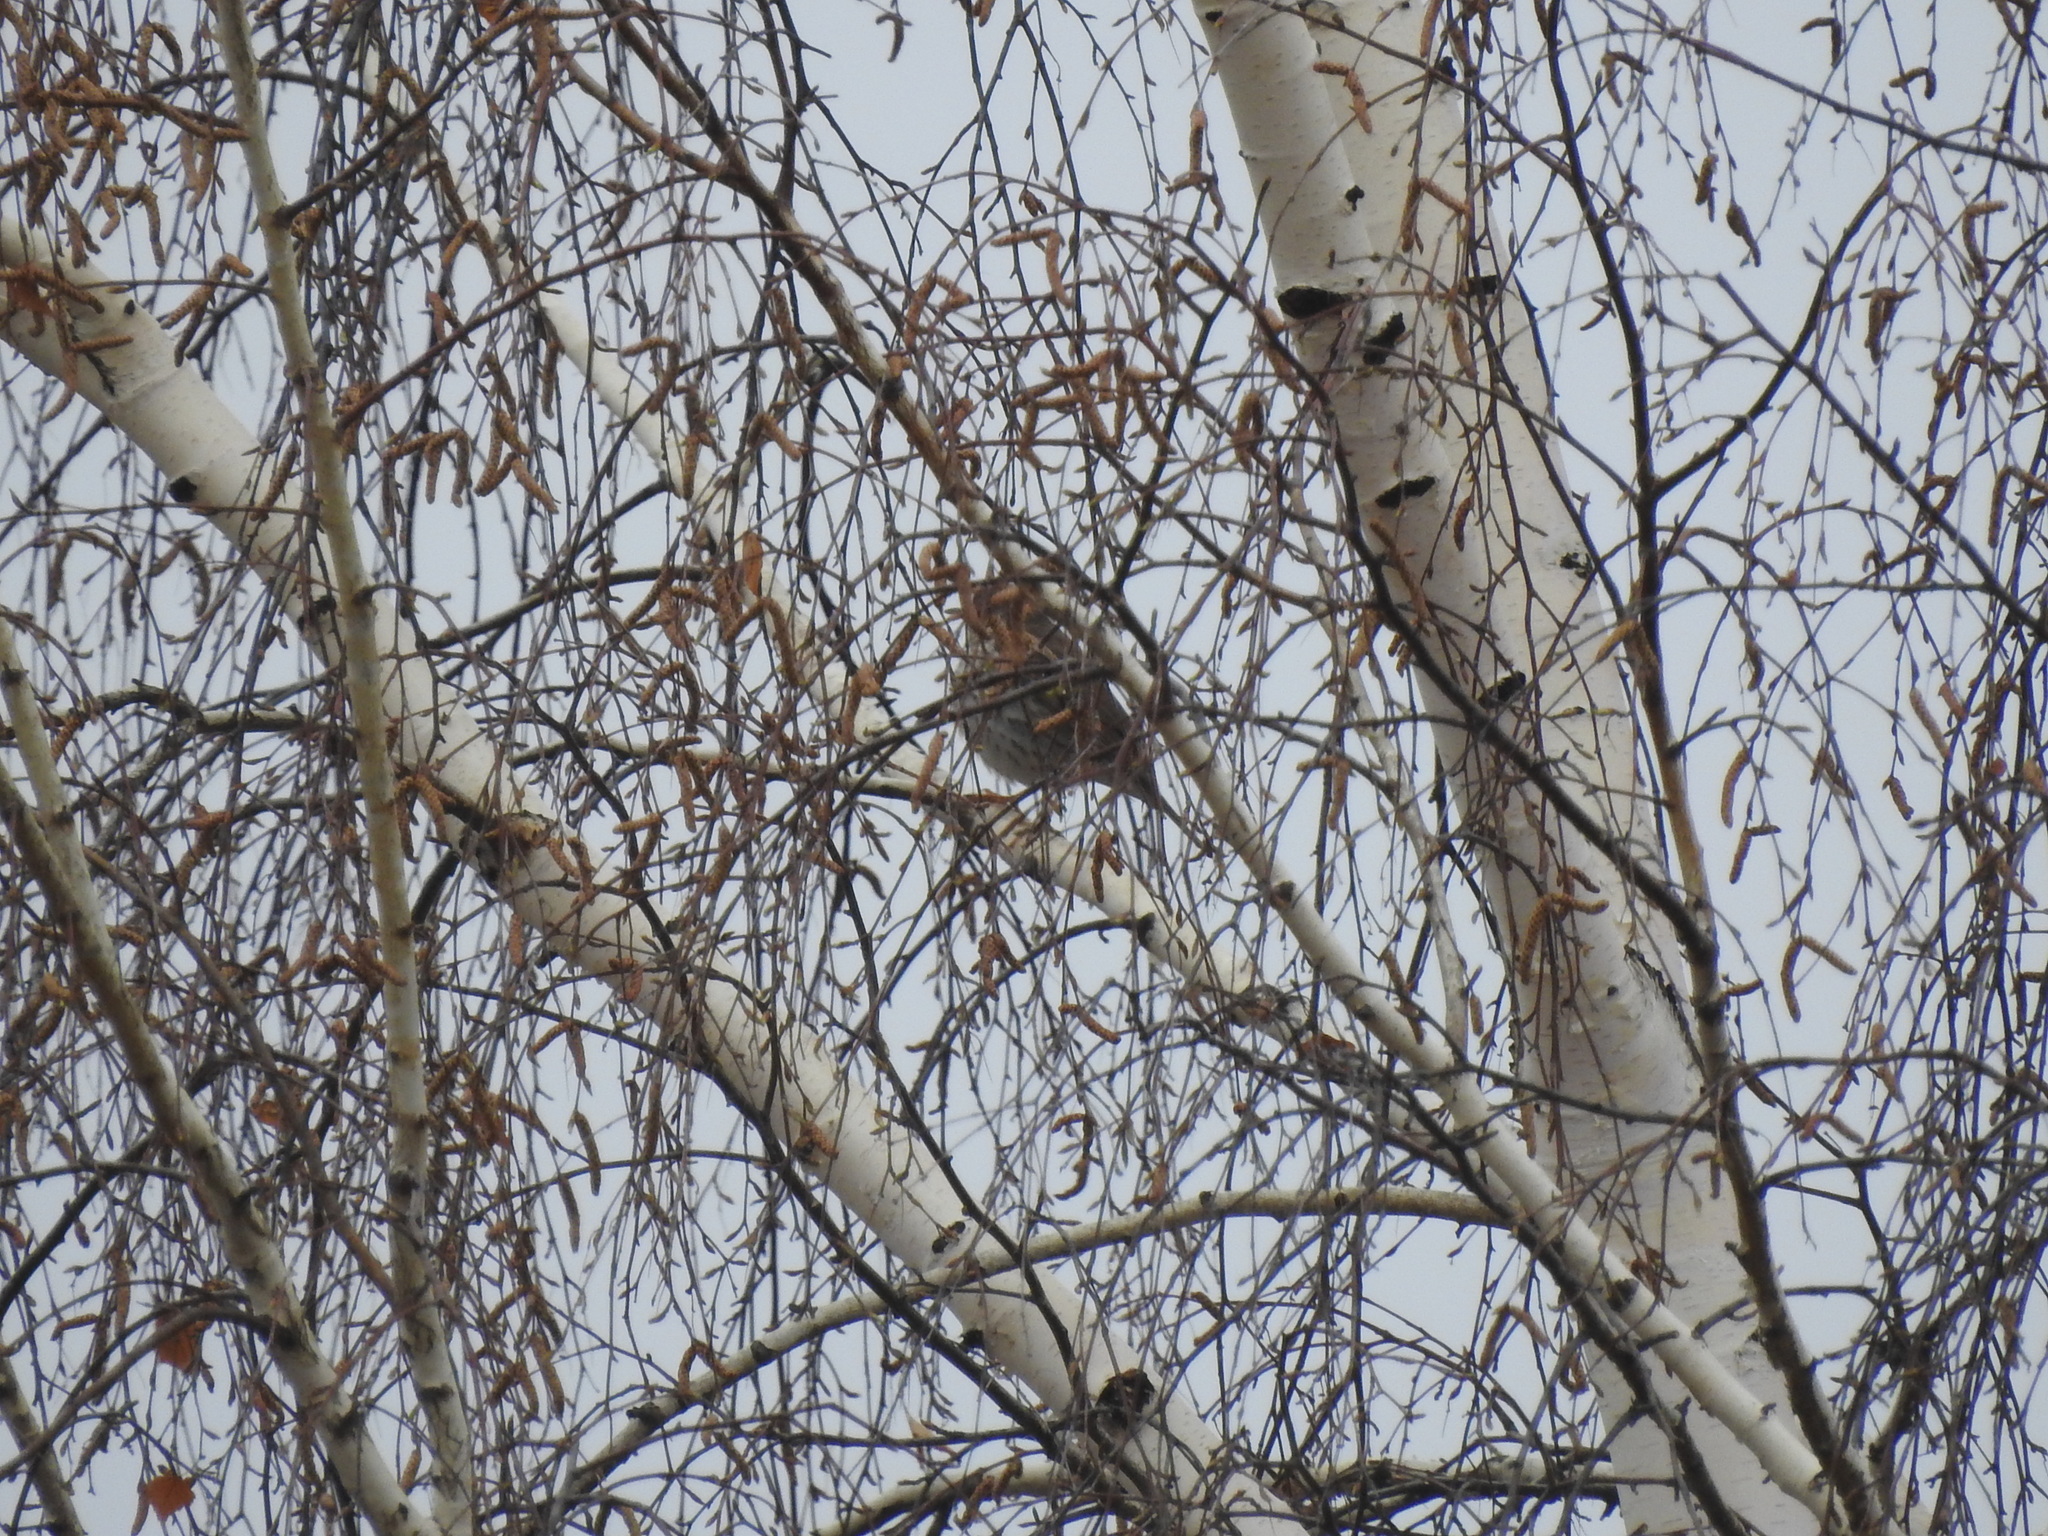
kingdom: Animalia
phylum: Chordata
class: Aves
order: Passeriformes
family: Turdidae
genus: Turdus
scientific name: Turdus philomelos
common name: Song thrush
